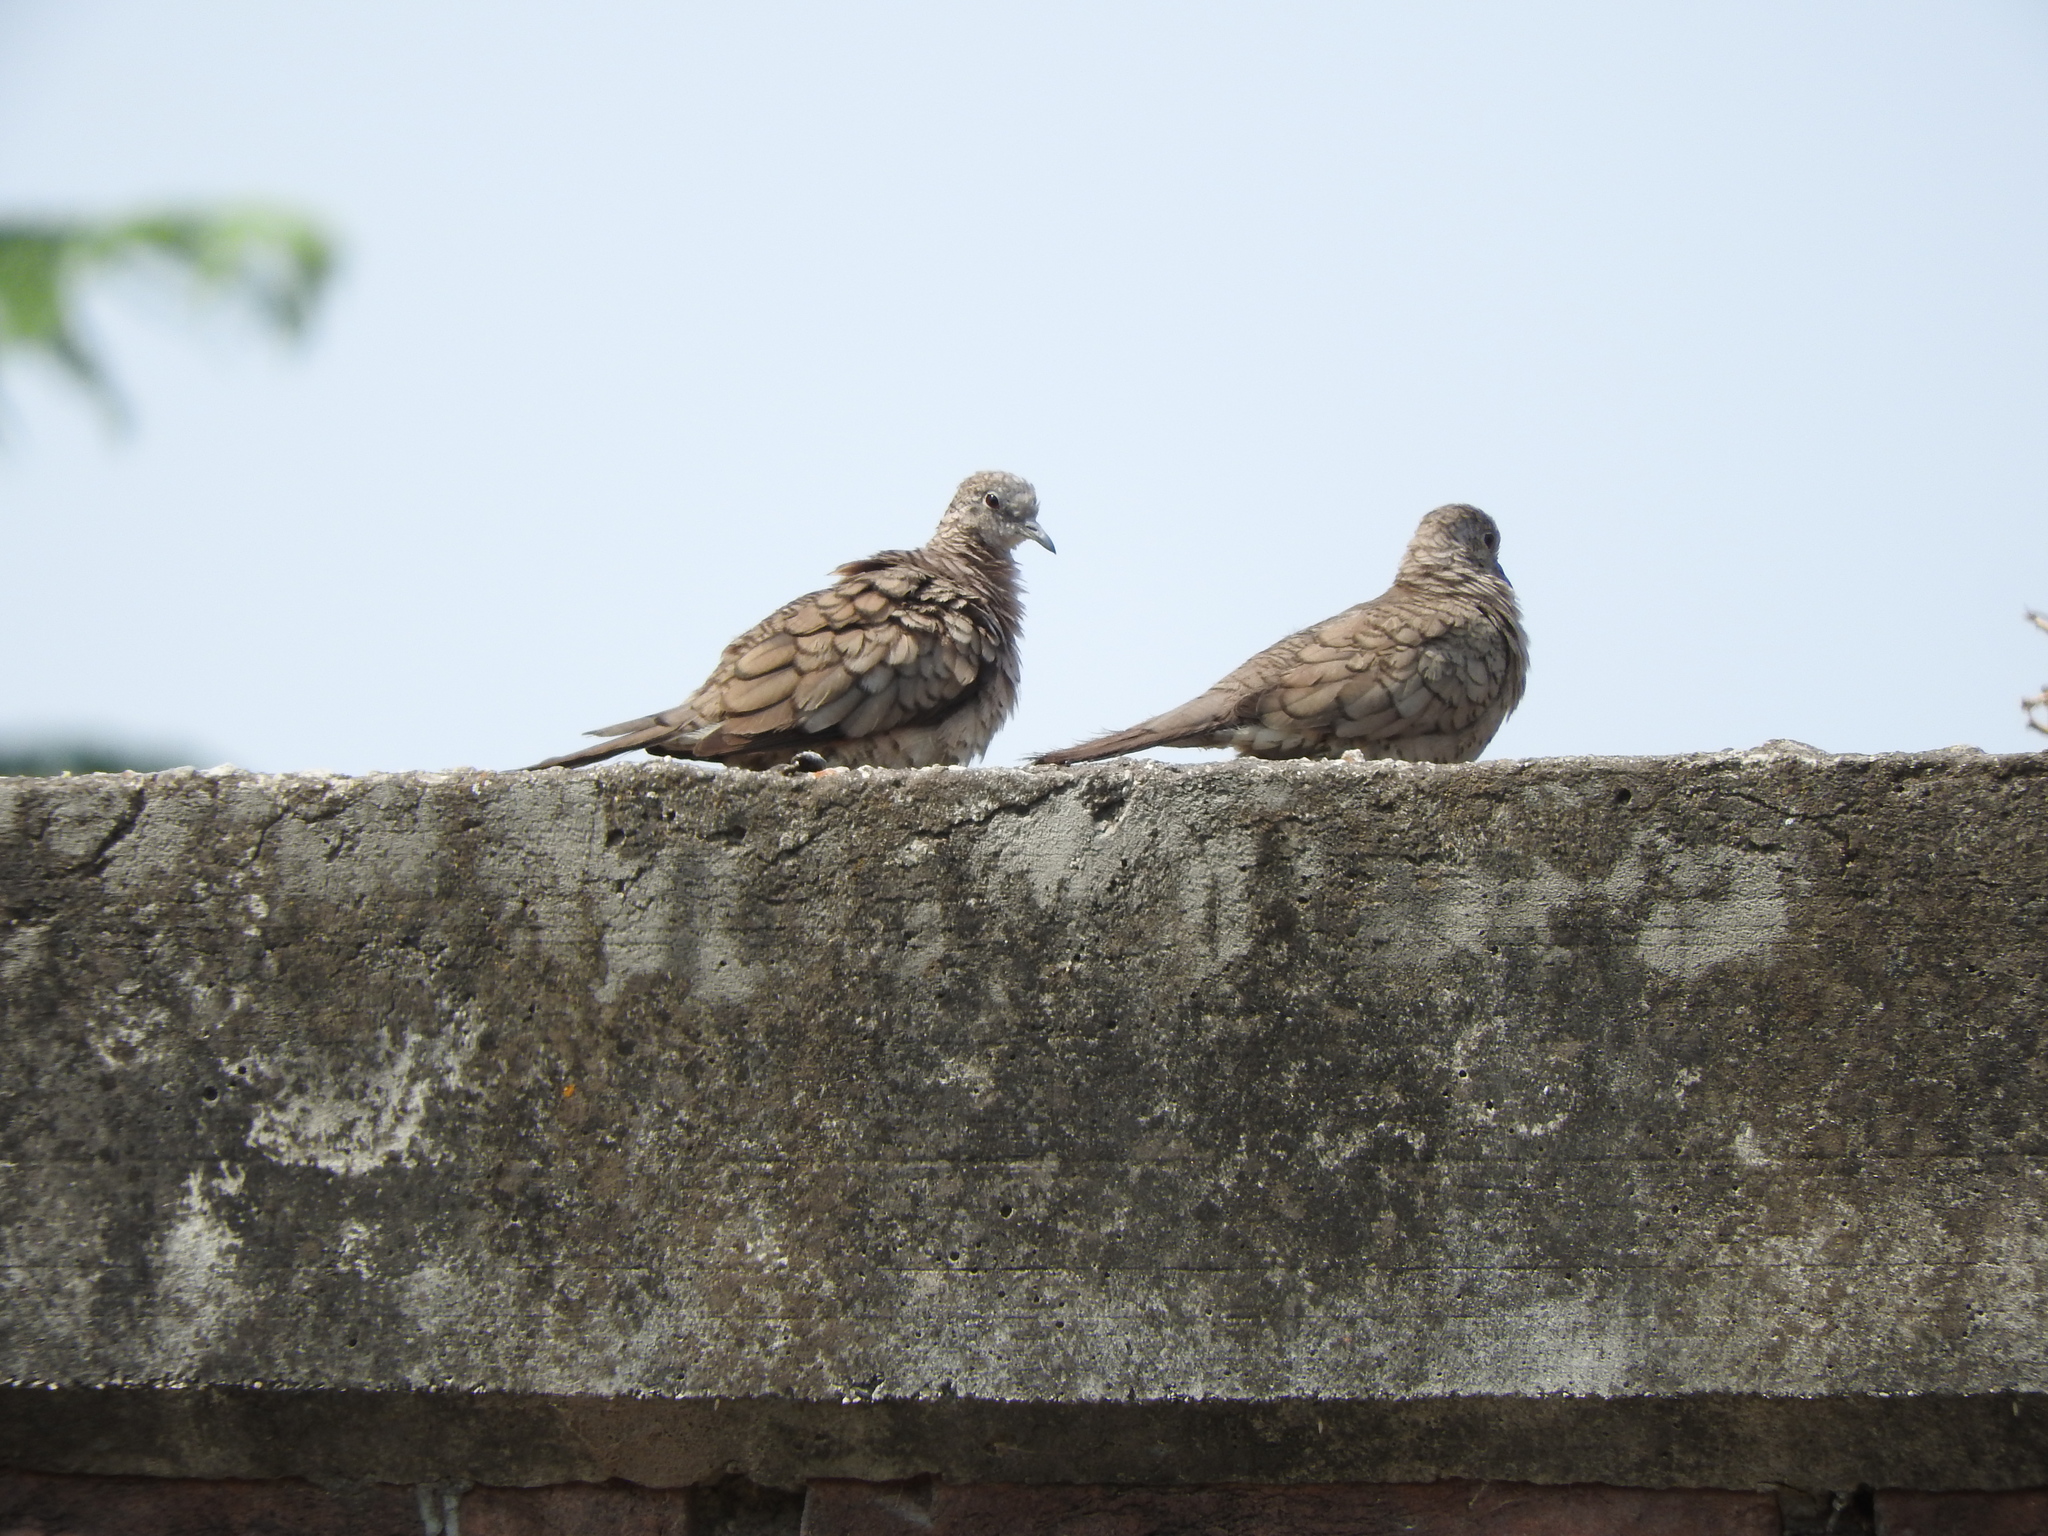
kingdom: Animalia
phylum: Chordata
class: Aves
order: Columbiformes
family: Columbidae
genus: Columbina
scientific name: Columbina inca
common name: Inca dove
